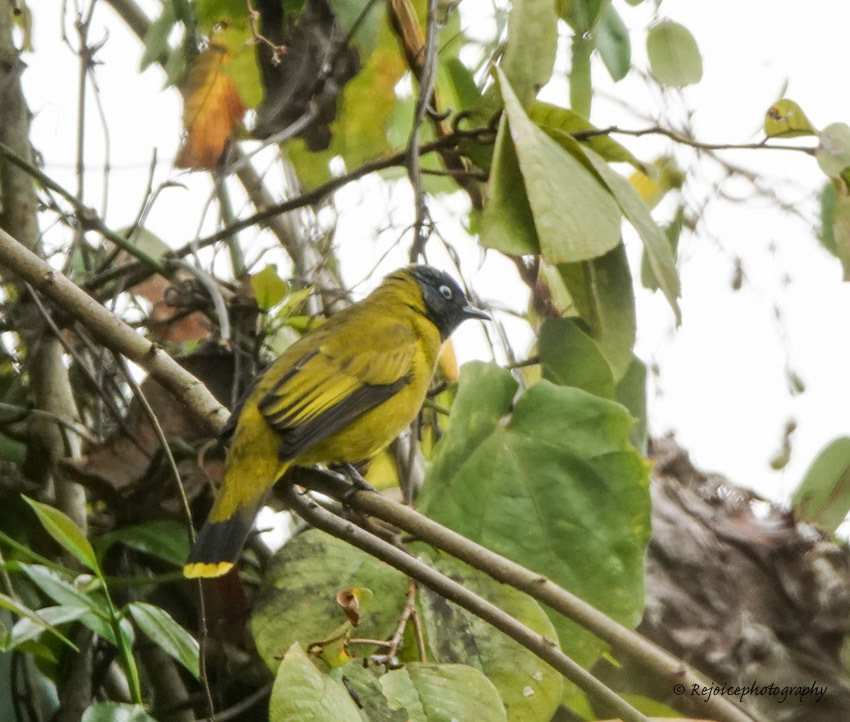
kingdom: Animalia
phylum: Chordata
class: Aves
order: Passeriformes
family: Pycnonotidae
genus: Microtarsus
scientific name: Microtarsus
